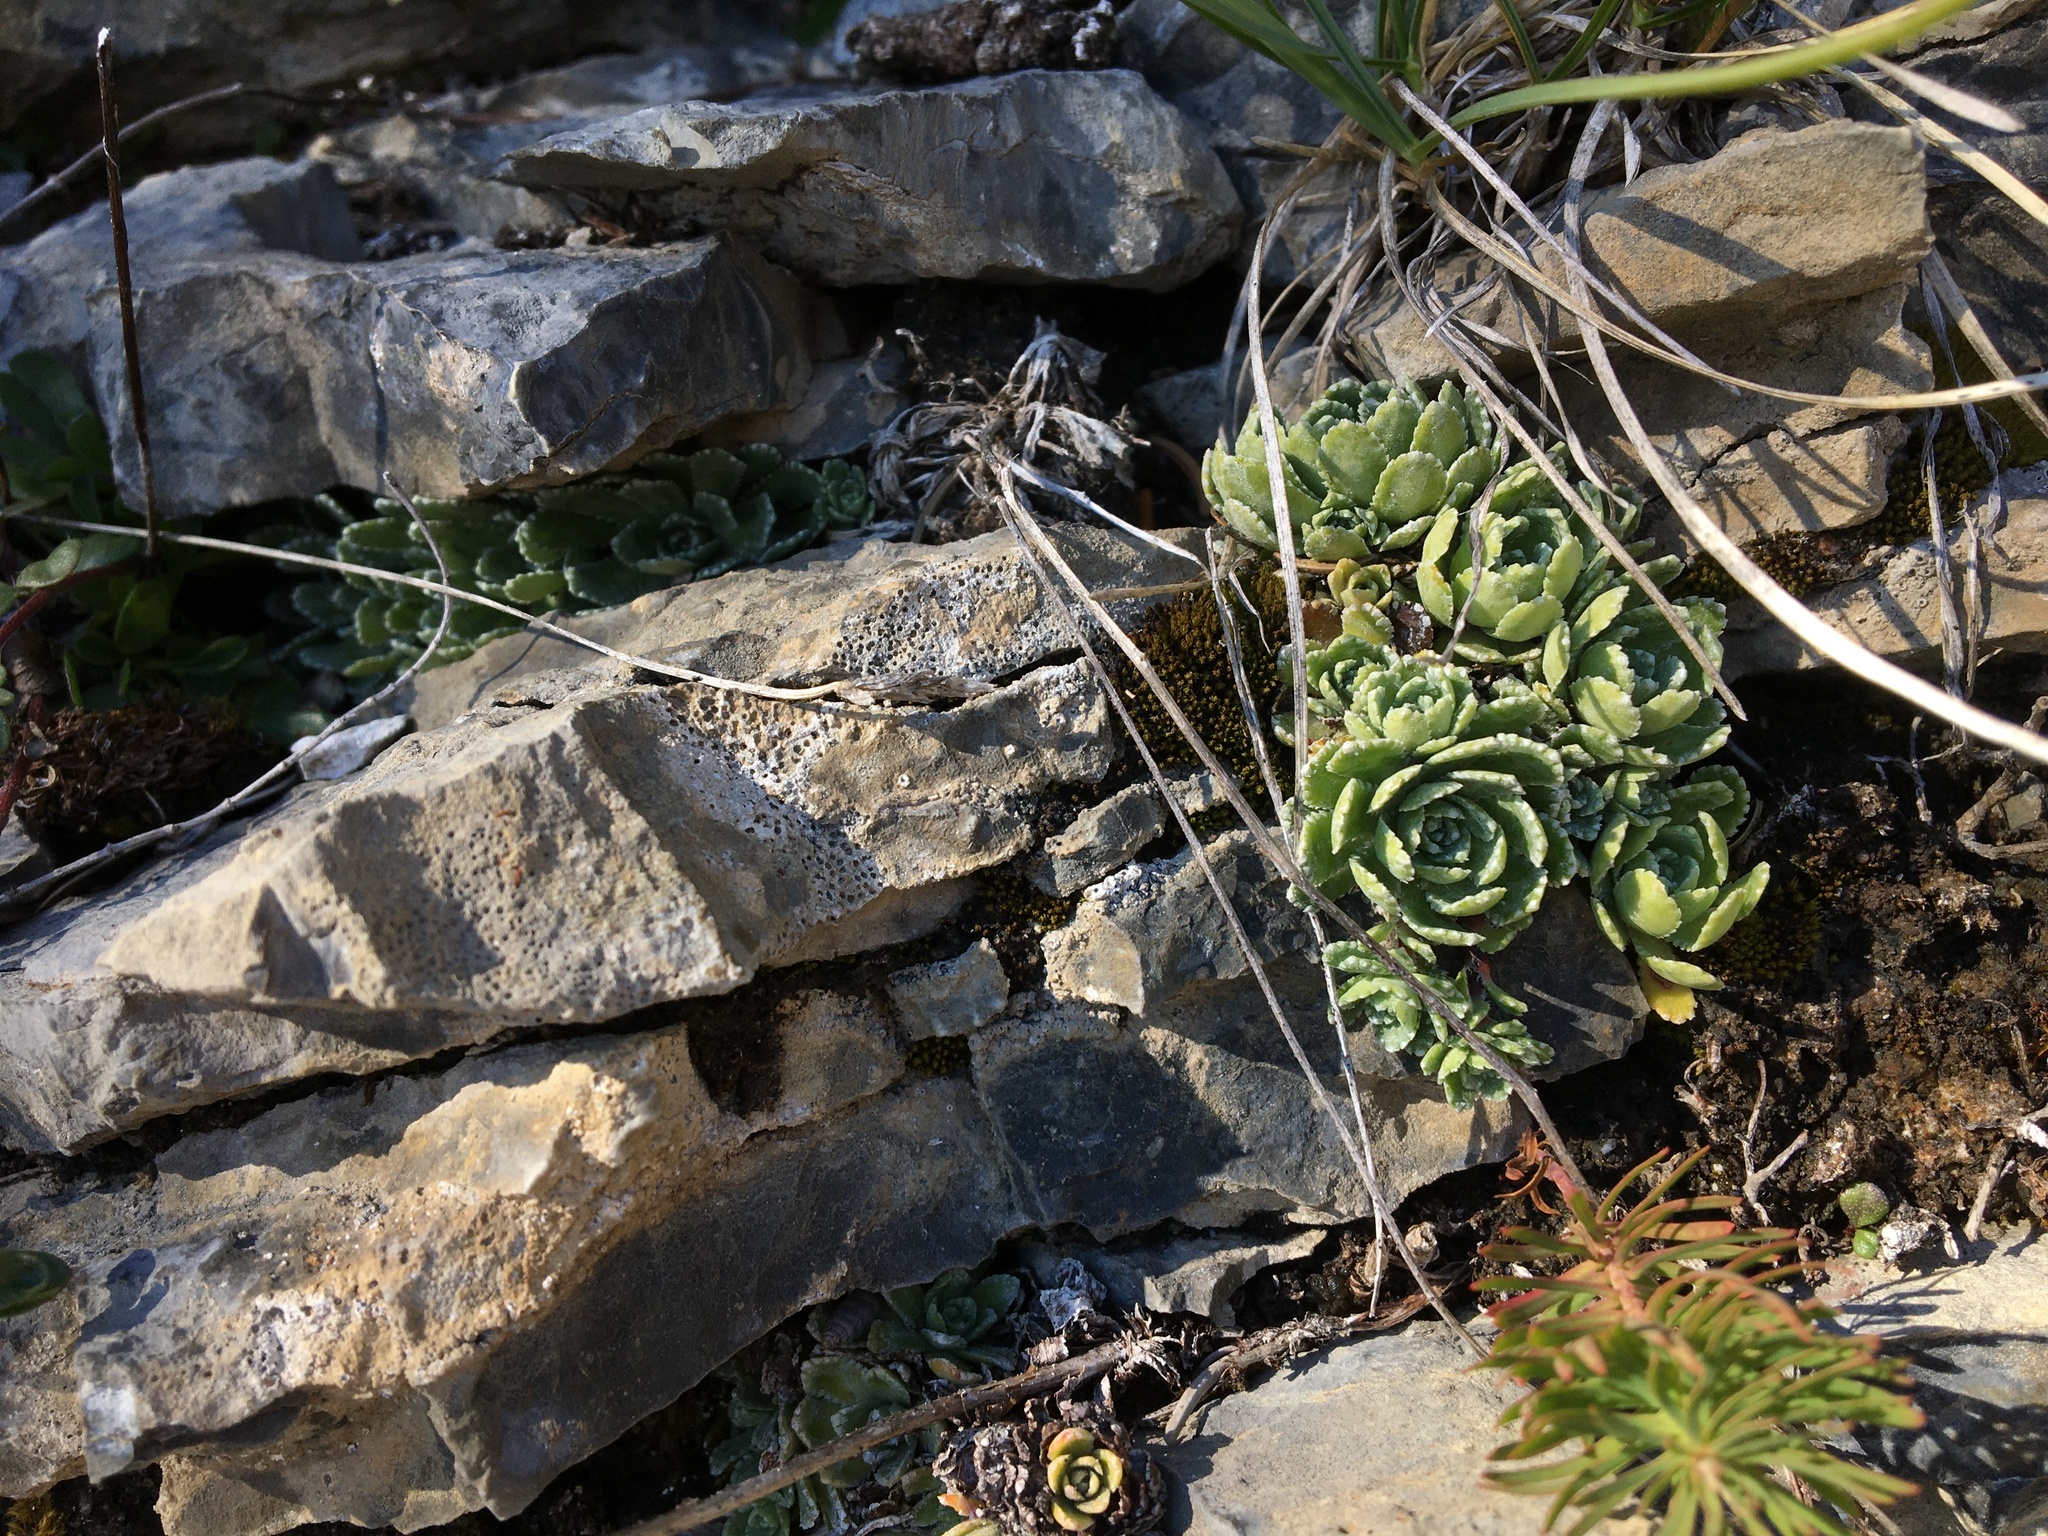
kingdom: Plantae
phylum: Tracheophyta
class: Magnoliopsida
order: Saxifragales
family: Saxifragaceae
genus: Saxifraga
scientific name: Saxifraga paniculata
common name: Livelong saxifrage
